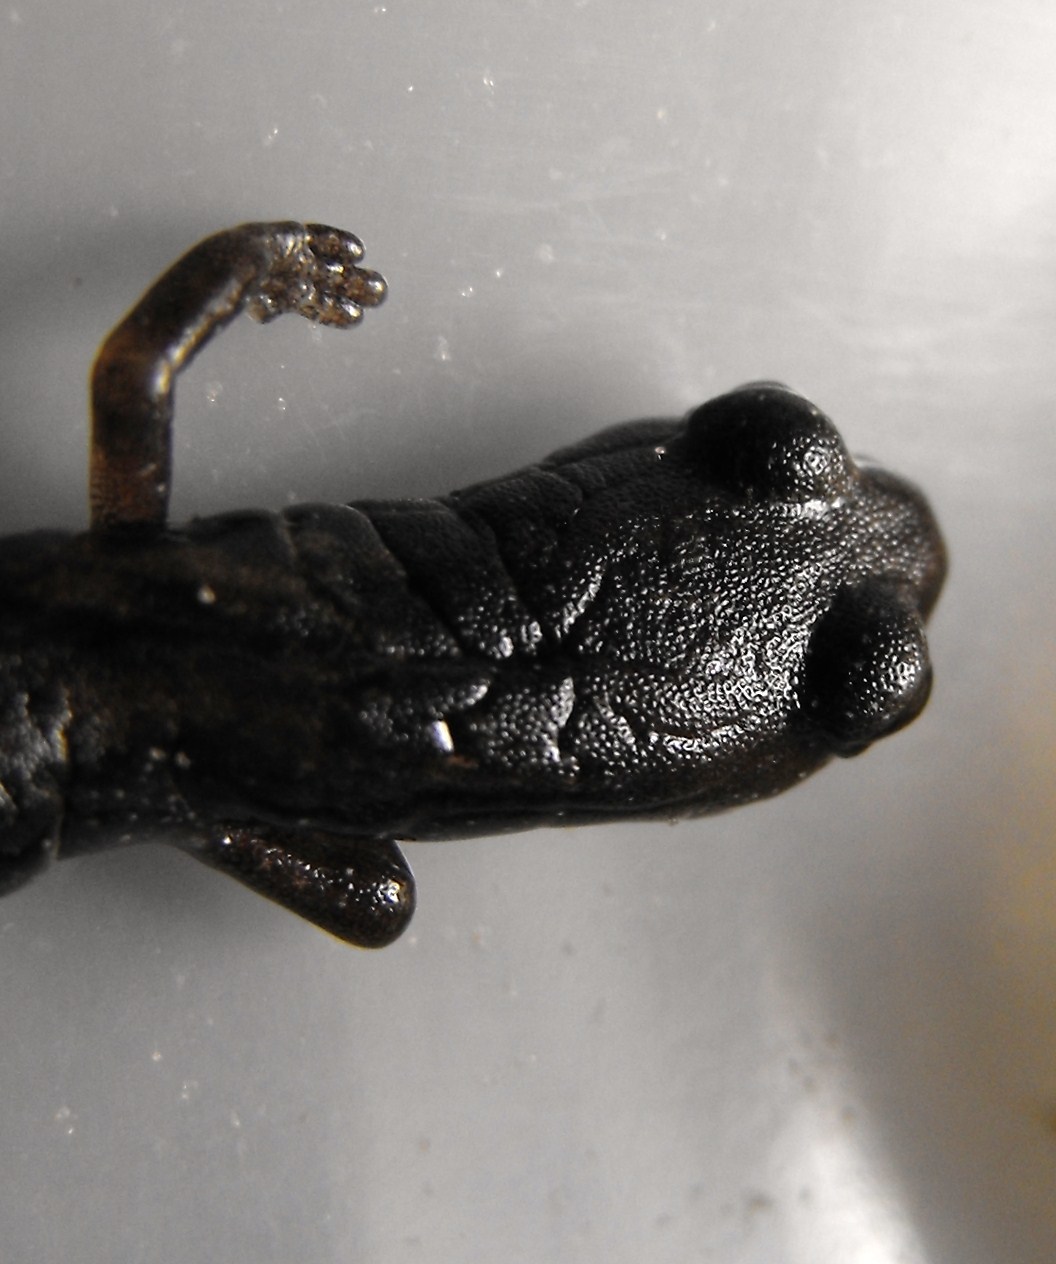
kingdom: Animalia
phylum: Chordata
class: Amphibia
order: Caudata
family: Plethodontidae
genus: Batrachoseps
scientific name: Batrachoseps attenuatus
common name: California slender salamander
